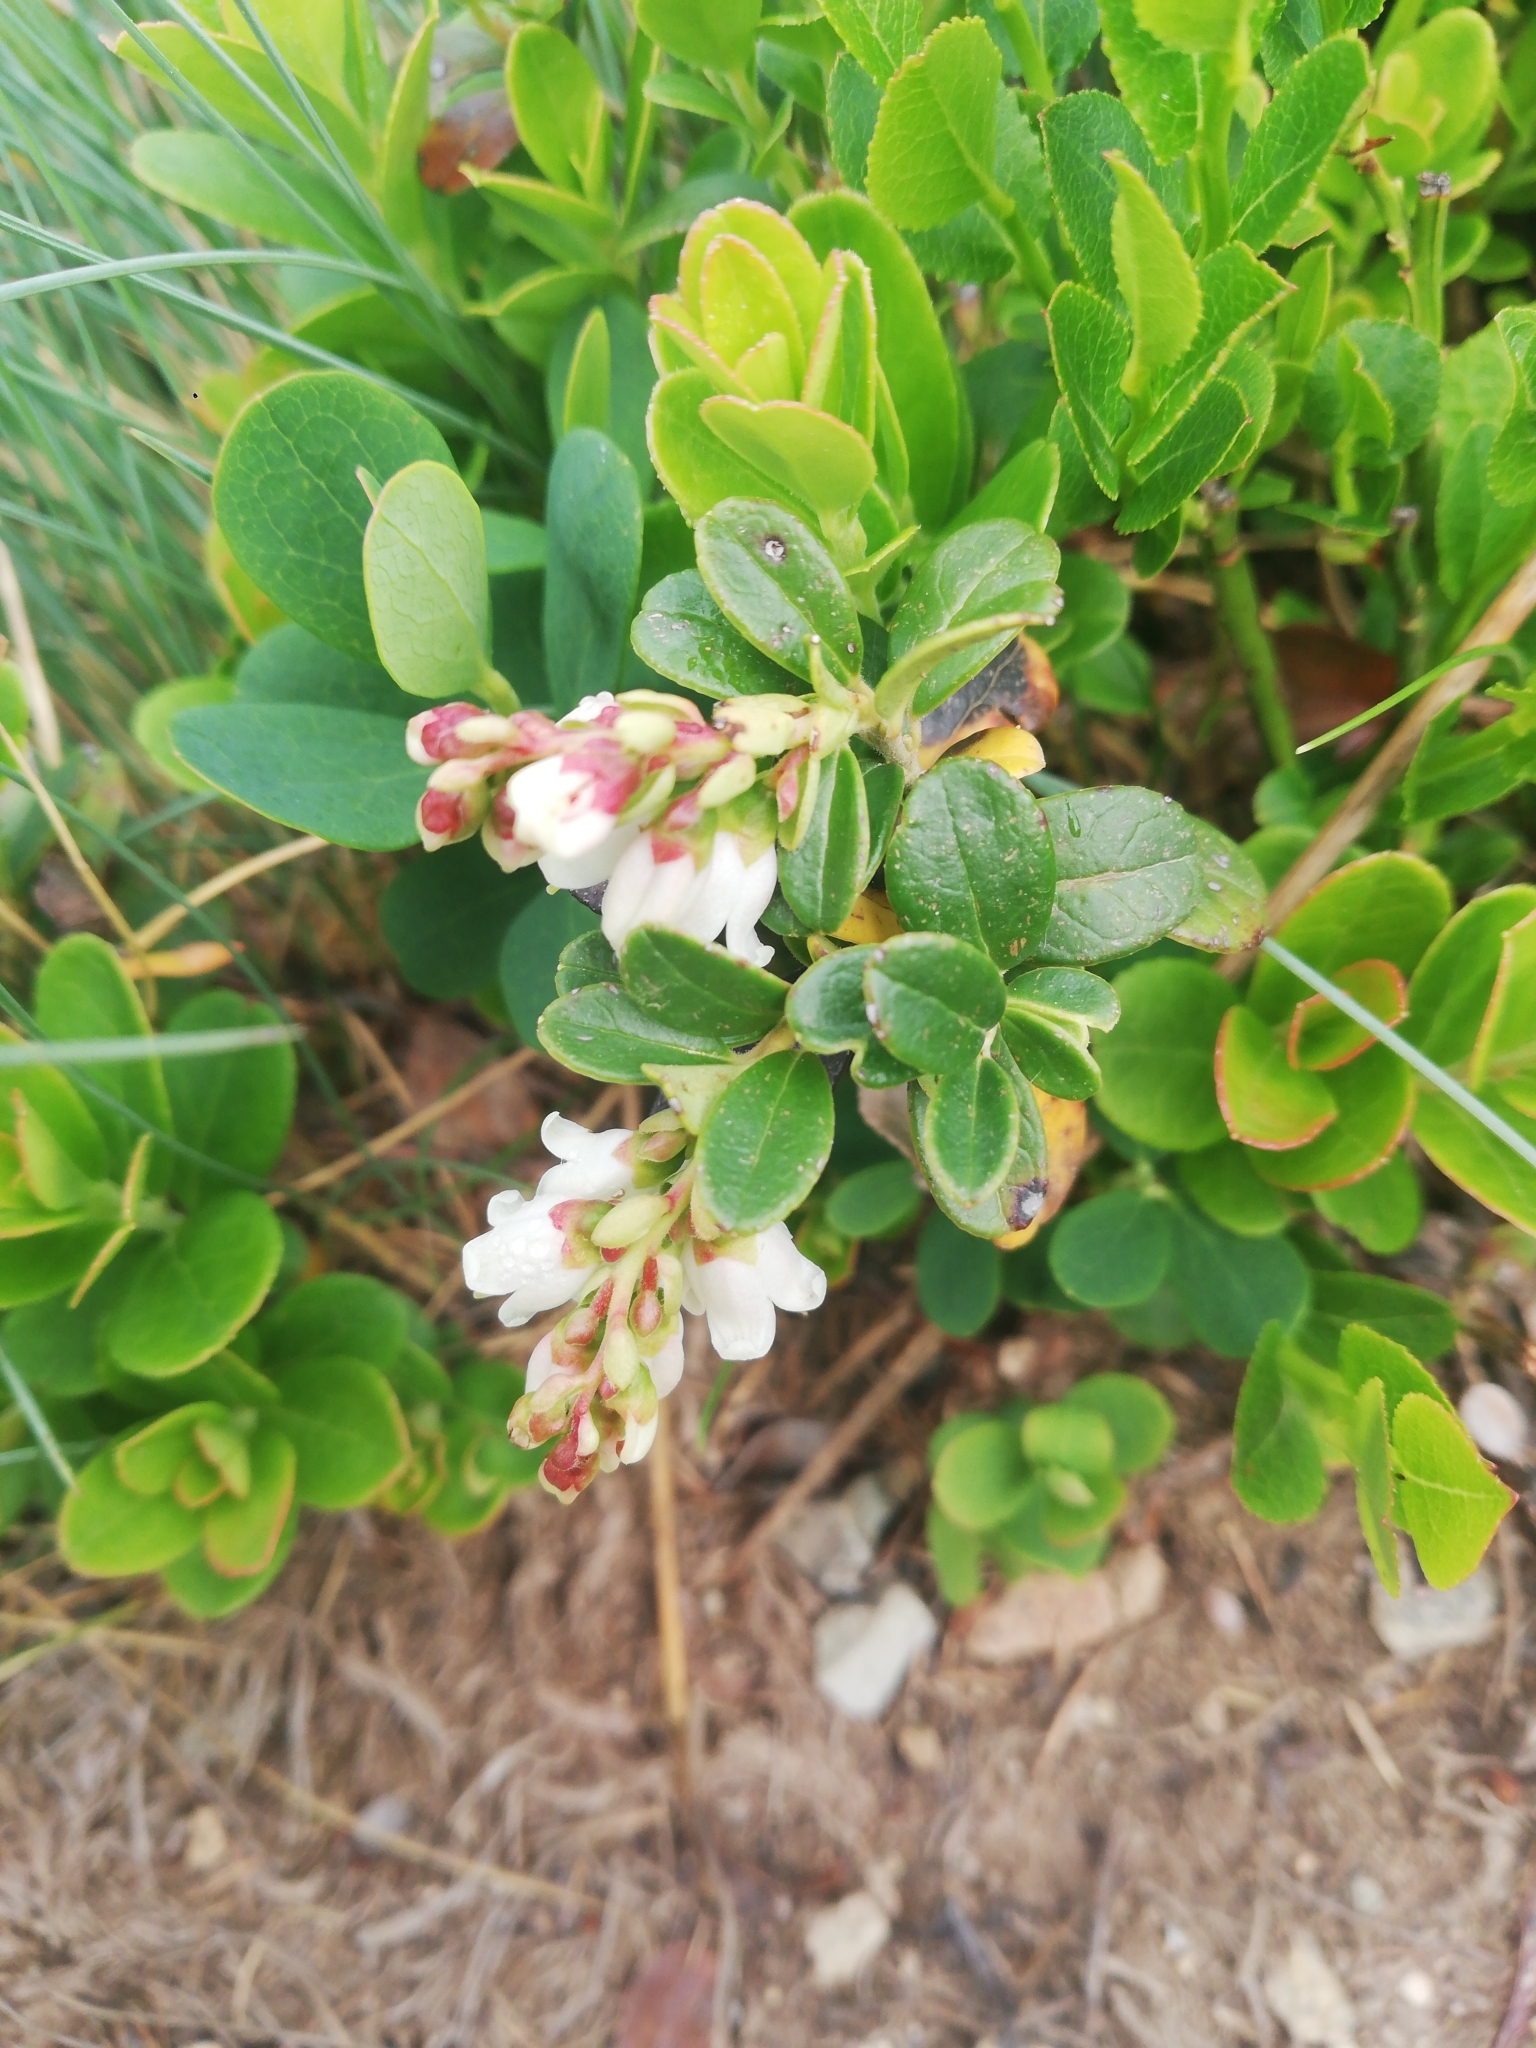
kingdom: Plantae
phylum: Tracheophyta
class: Magnoliopsida
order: Ericales
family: Ericaceae
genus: Vaccinium
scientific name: Vaccinium vitis-idaea
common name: Cowberry
